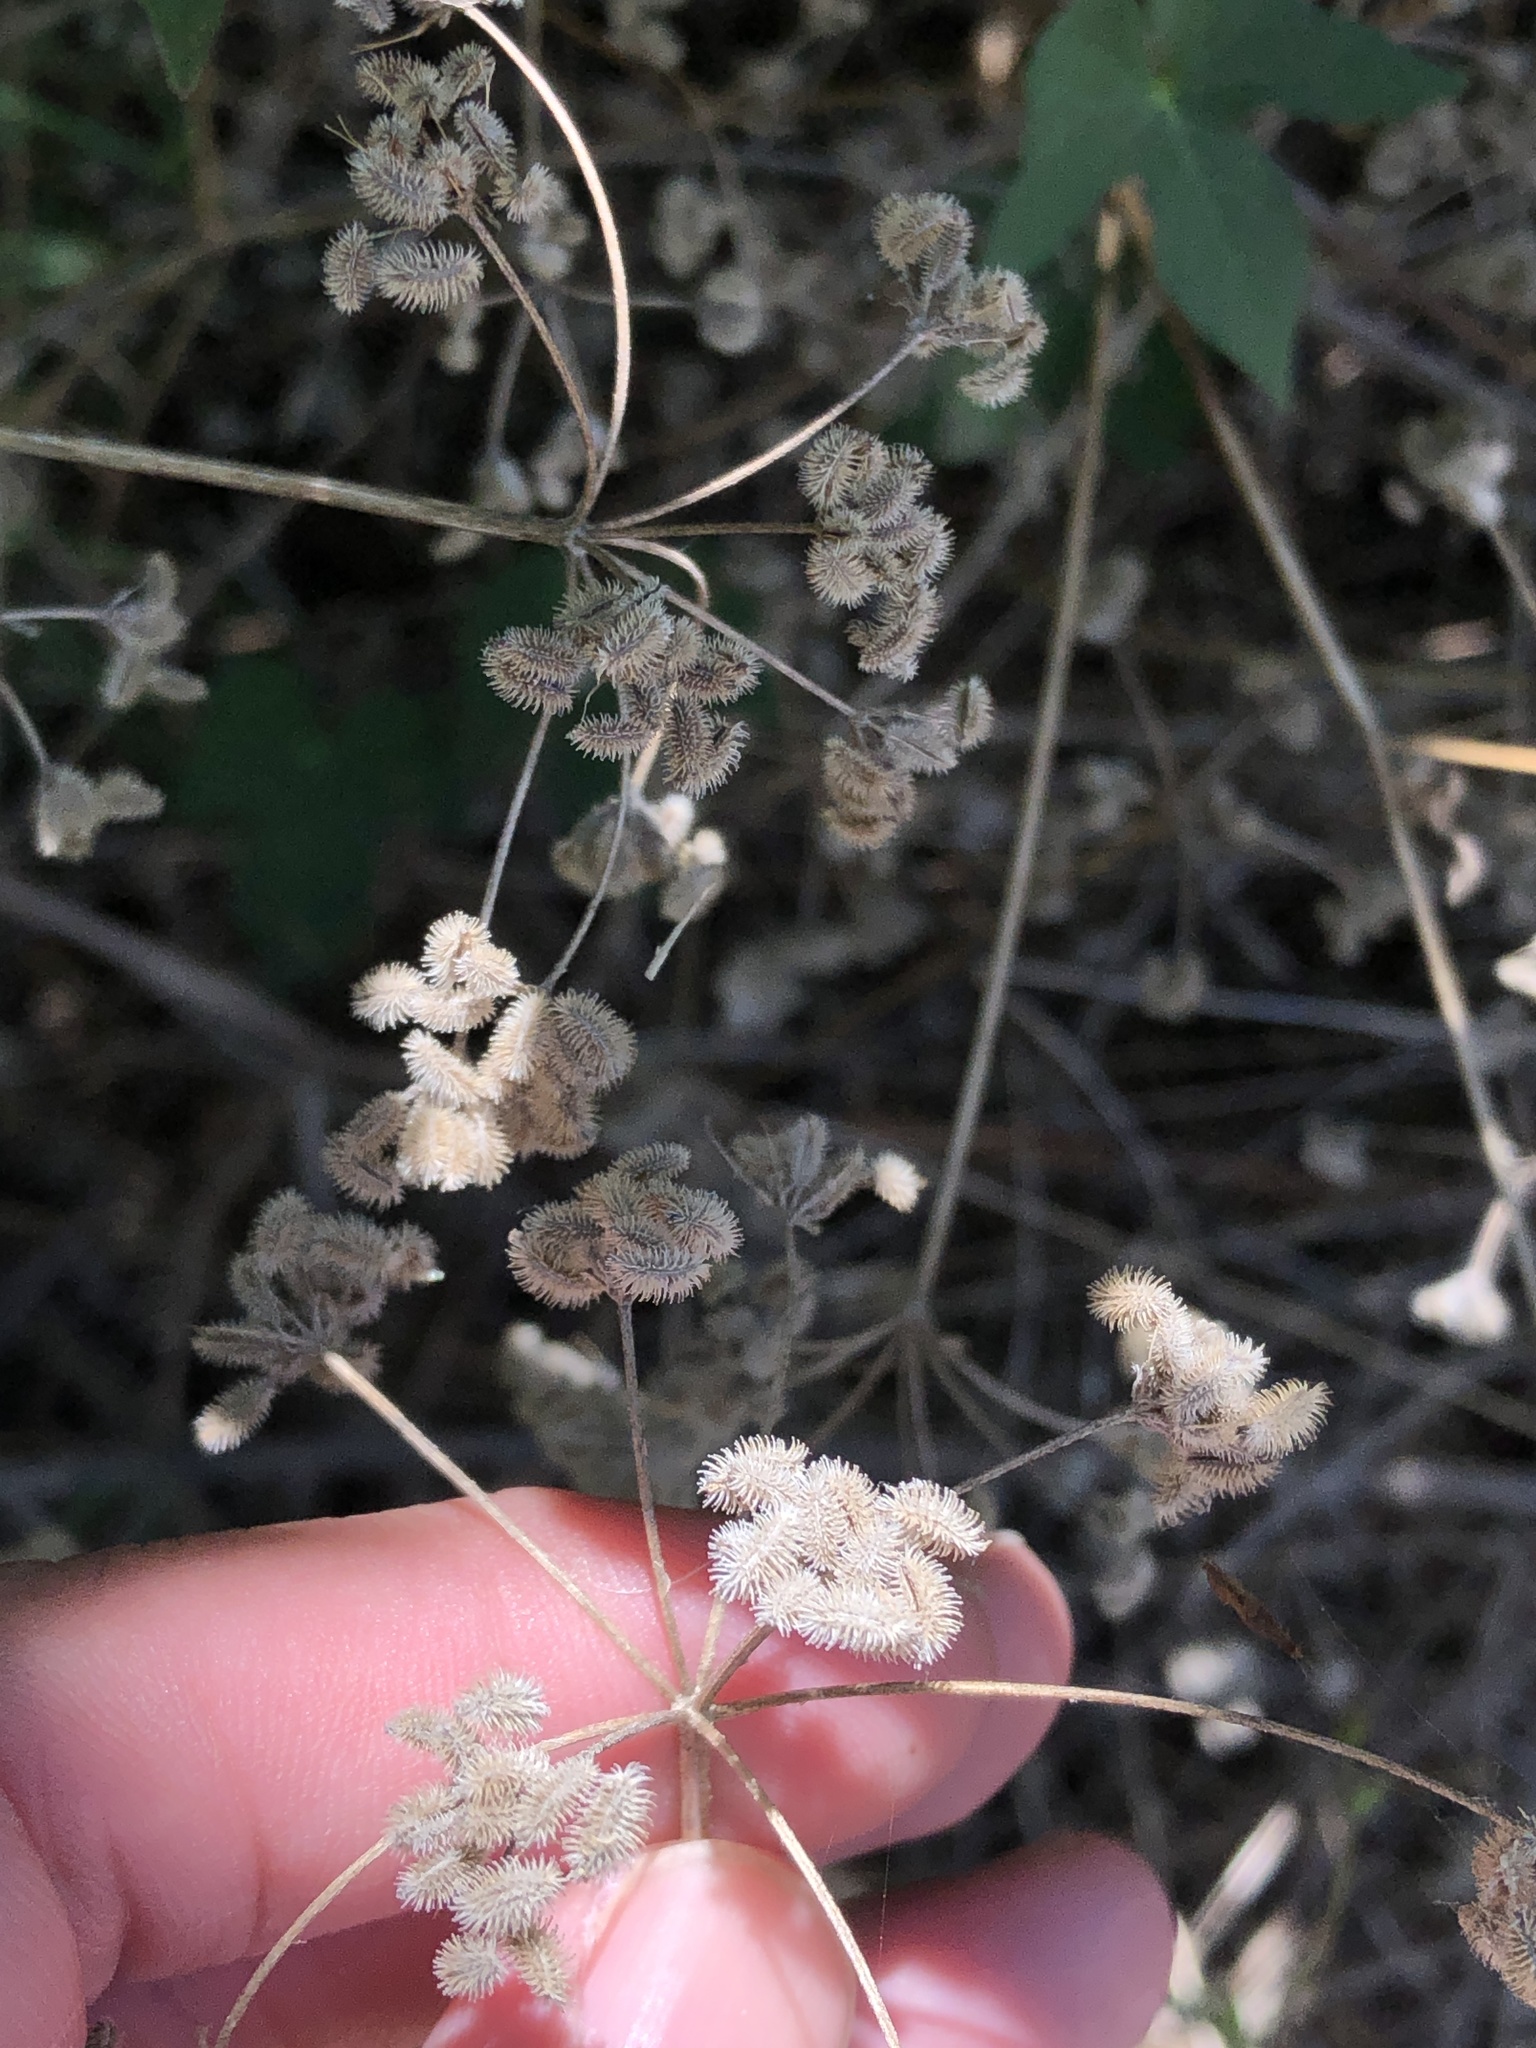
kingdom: Plantae
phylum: Tracheophyta
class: Magnoliopsida
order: Apiales
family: Apiaceae
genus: Torilis
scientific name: Torilis arvensis
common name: Spreading hedge-parsley
